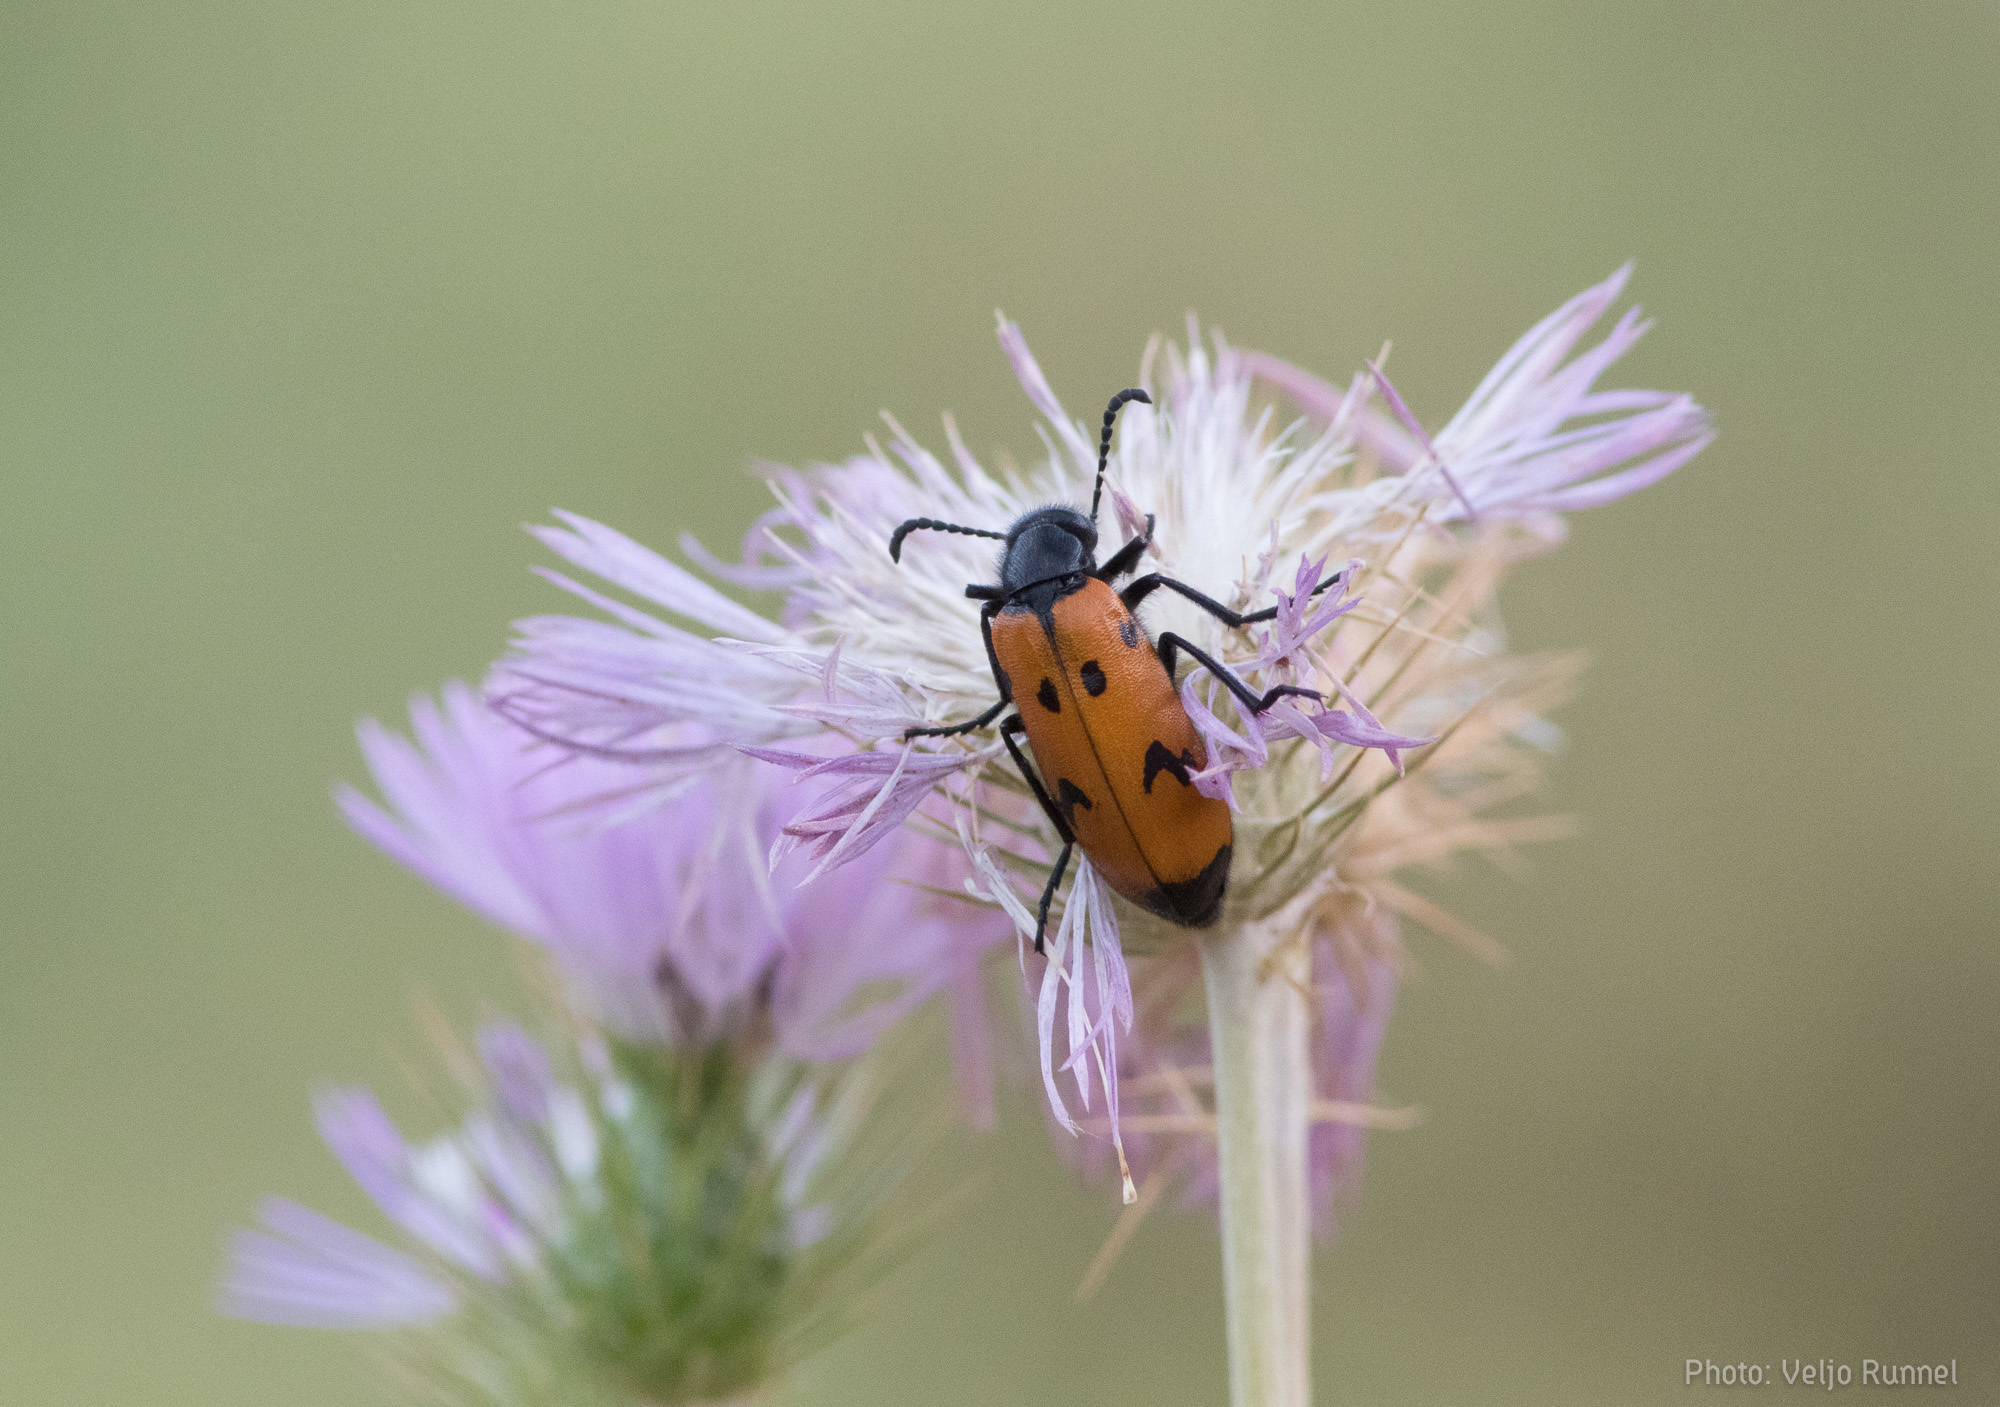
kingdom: Animalia
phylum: Arthropoda
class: Insecta
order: Coleoptera
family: Meloidae
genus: Mylabris
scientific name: Mylabris kodymi
